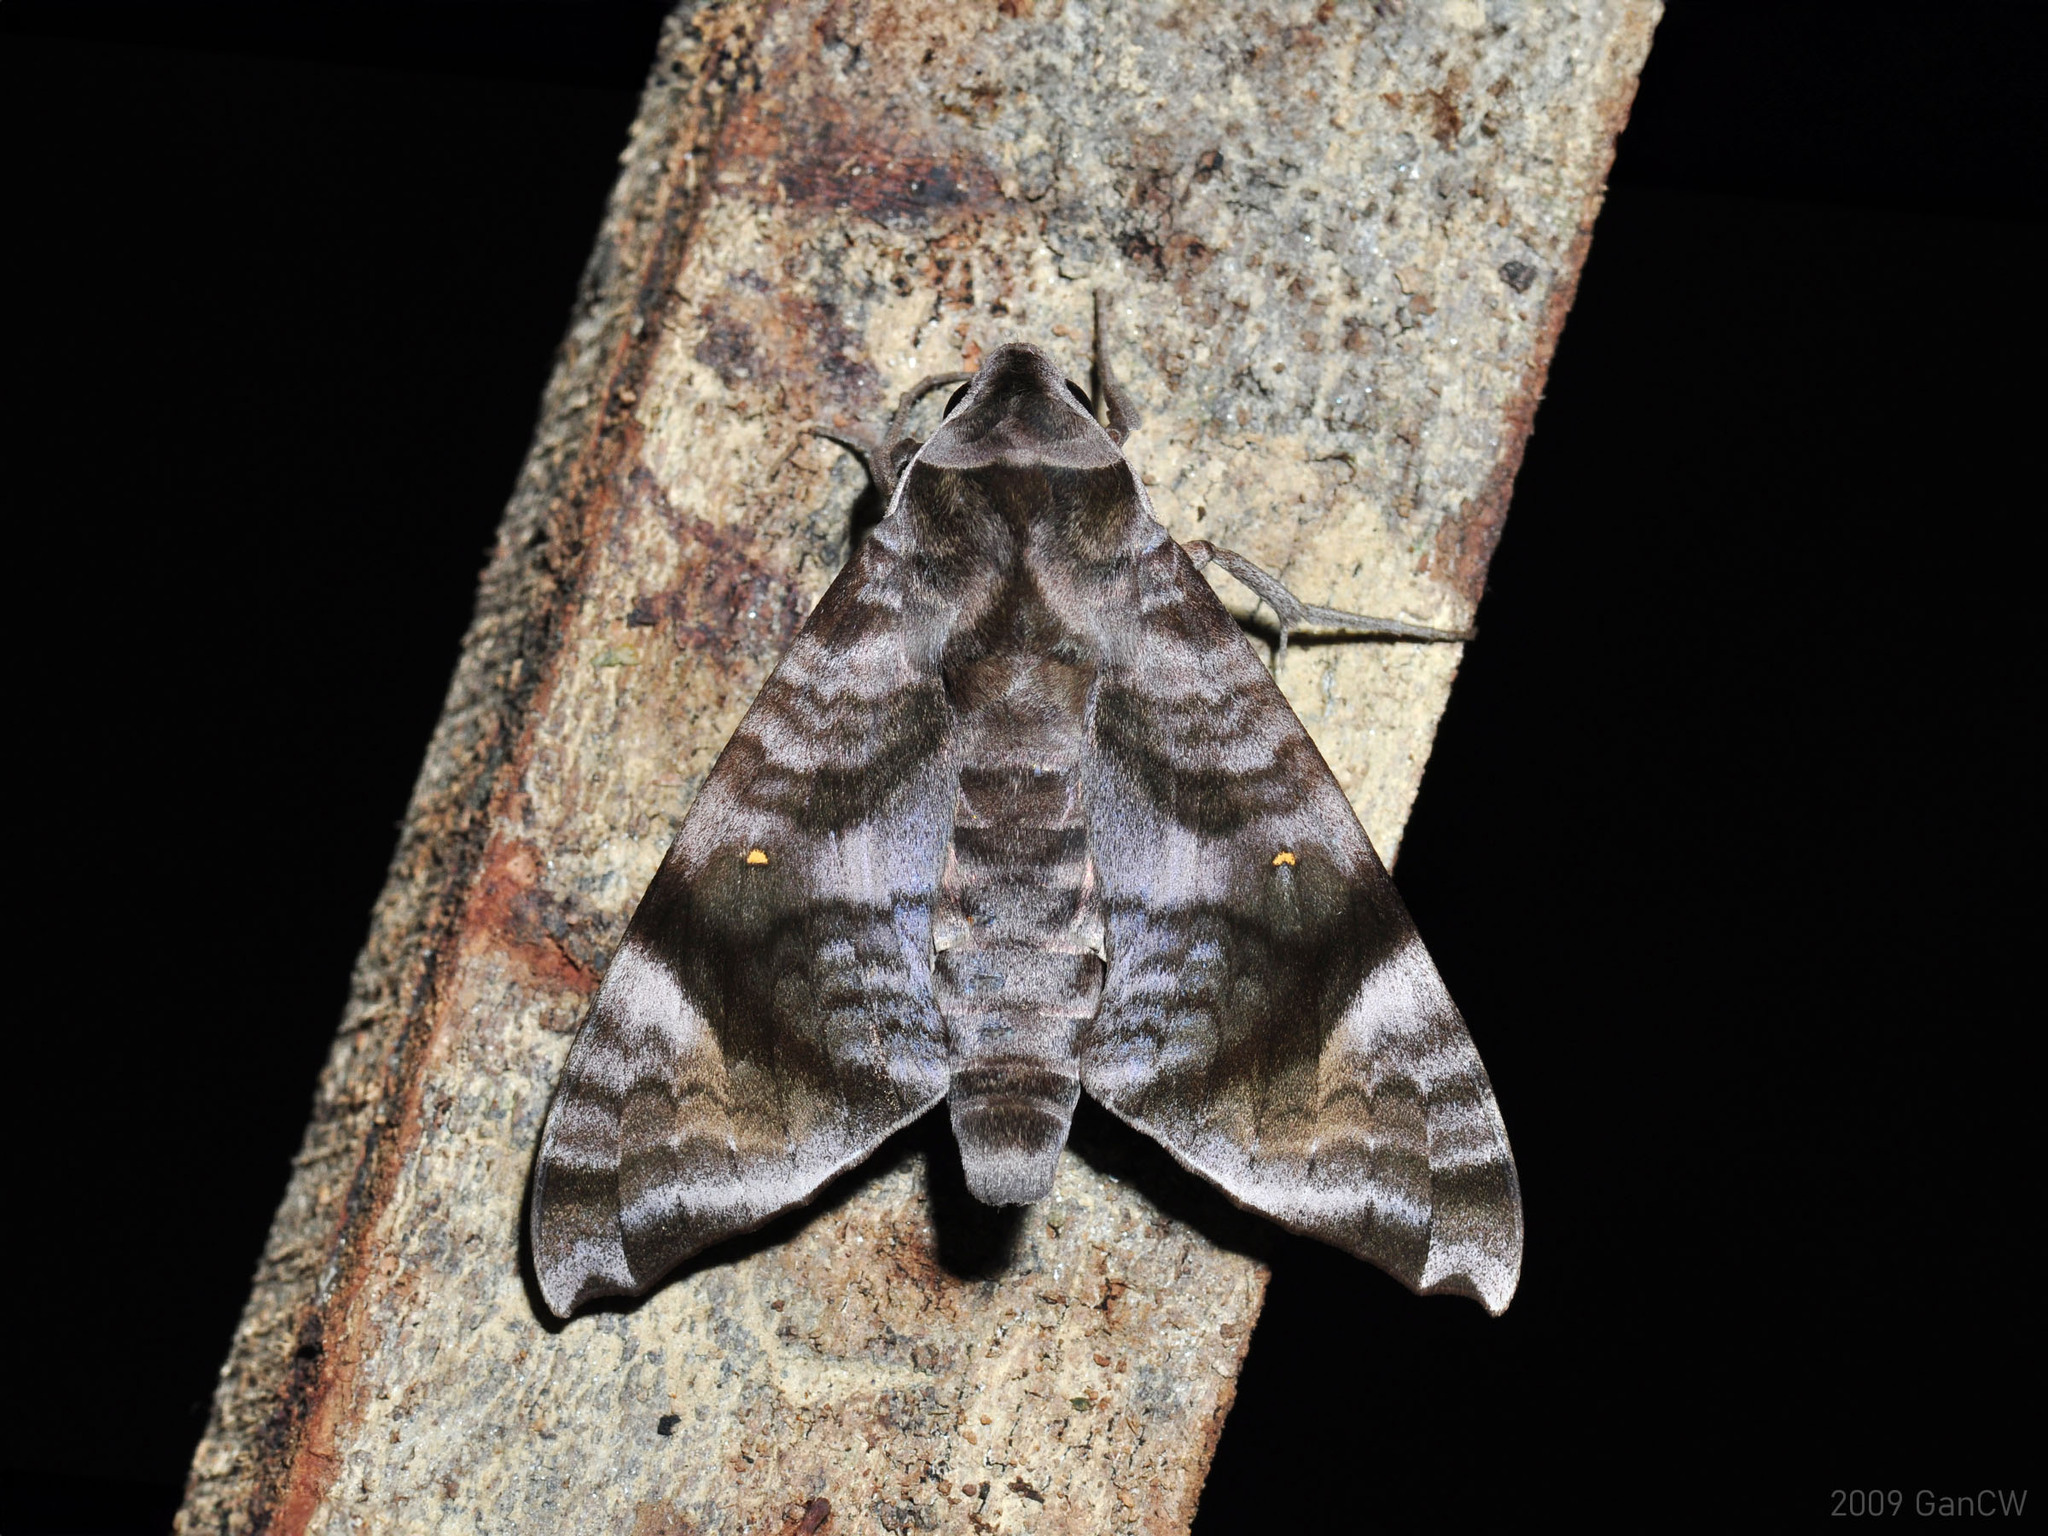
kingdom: Animalia
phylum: Arthropoda
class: Insecta
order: Lepidoptera
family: Sphingidae
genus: Acosmeryx
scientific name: Acosmeryx pseudonaga
